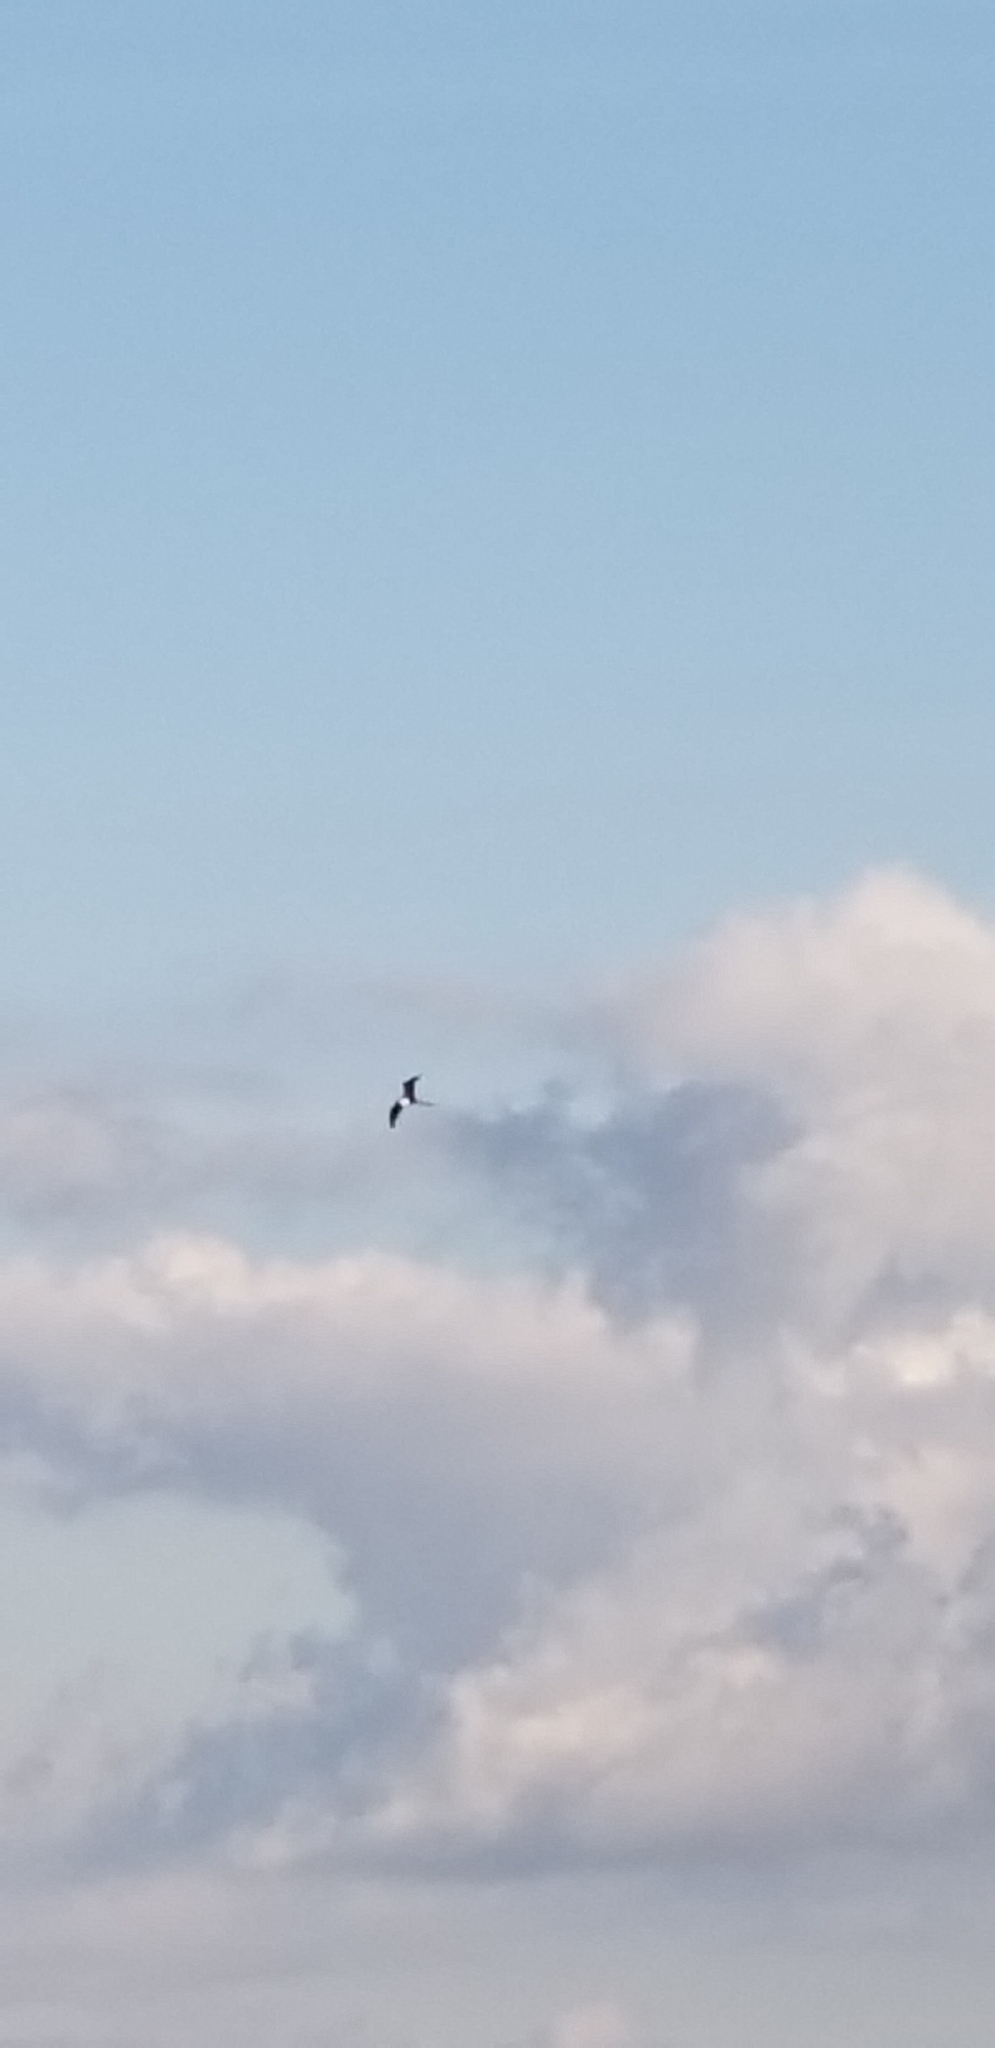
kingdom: Animalia
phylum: Chordata
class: Aves
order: Suliformes
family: Fregatidae
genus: Fregata
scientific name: Fregata magnificens
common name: Magnificent frigatebird
